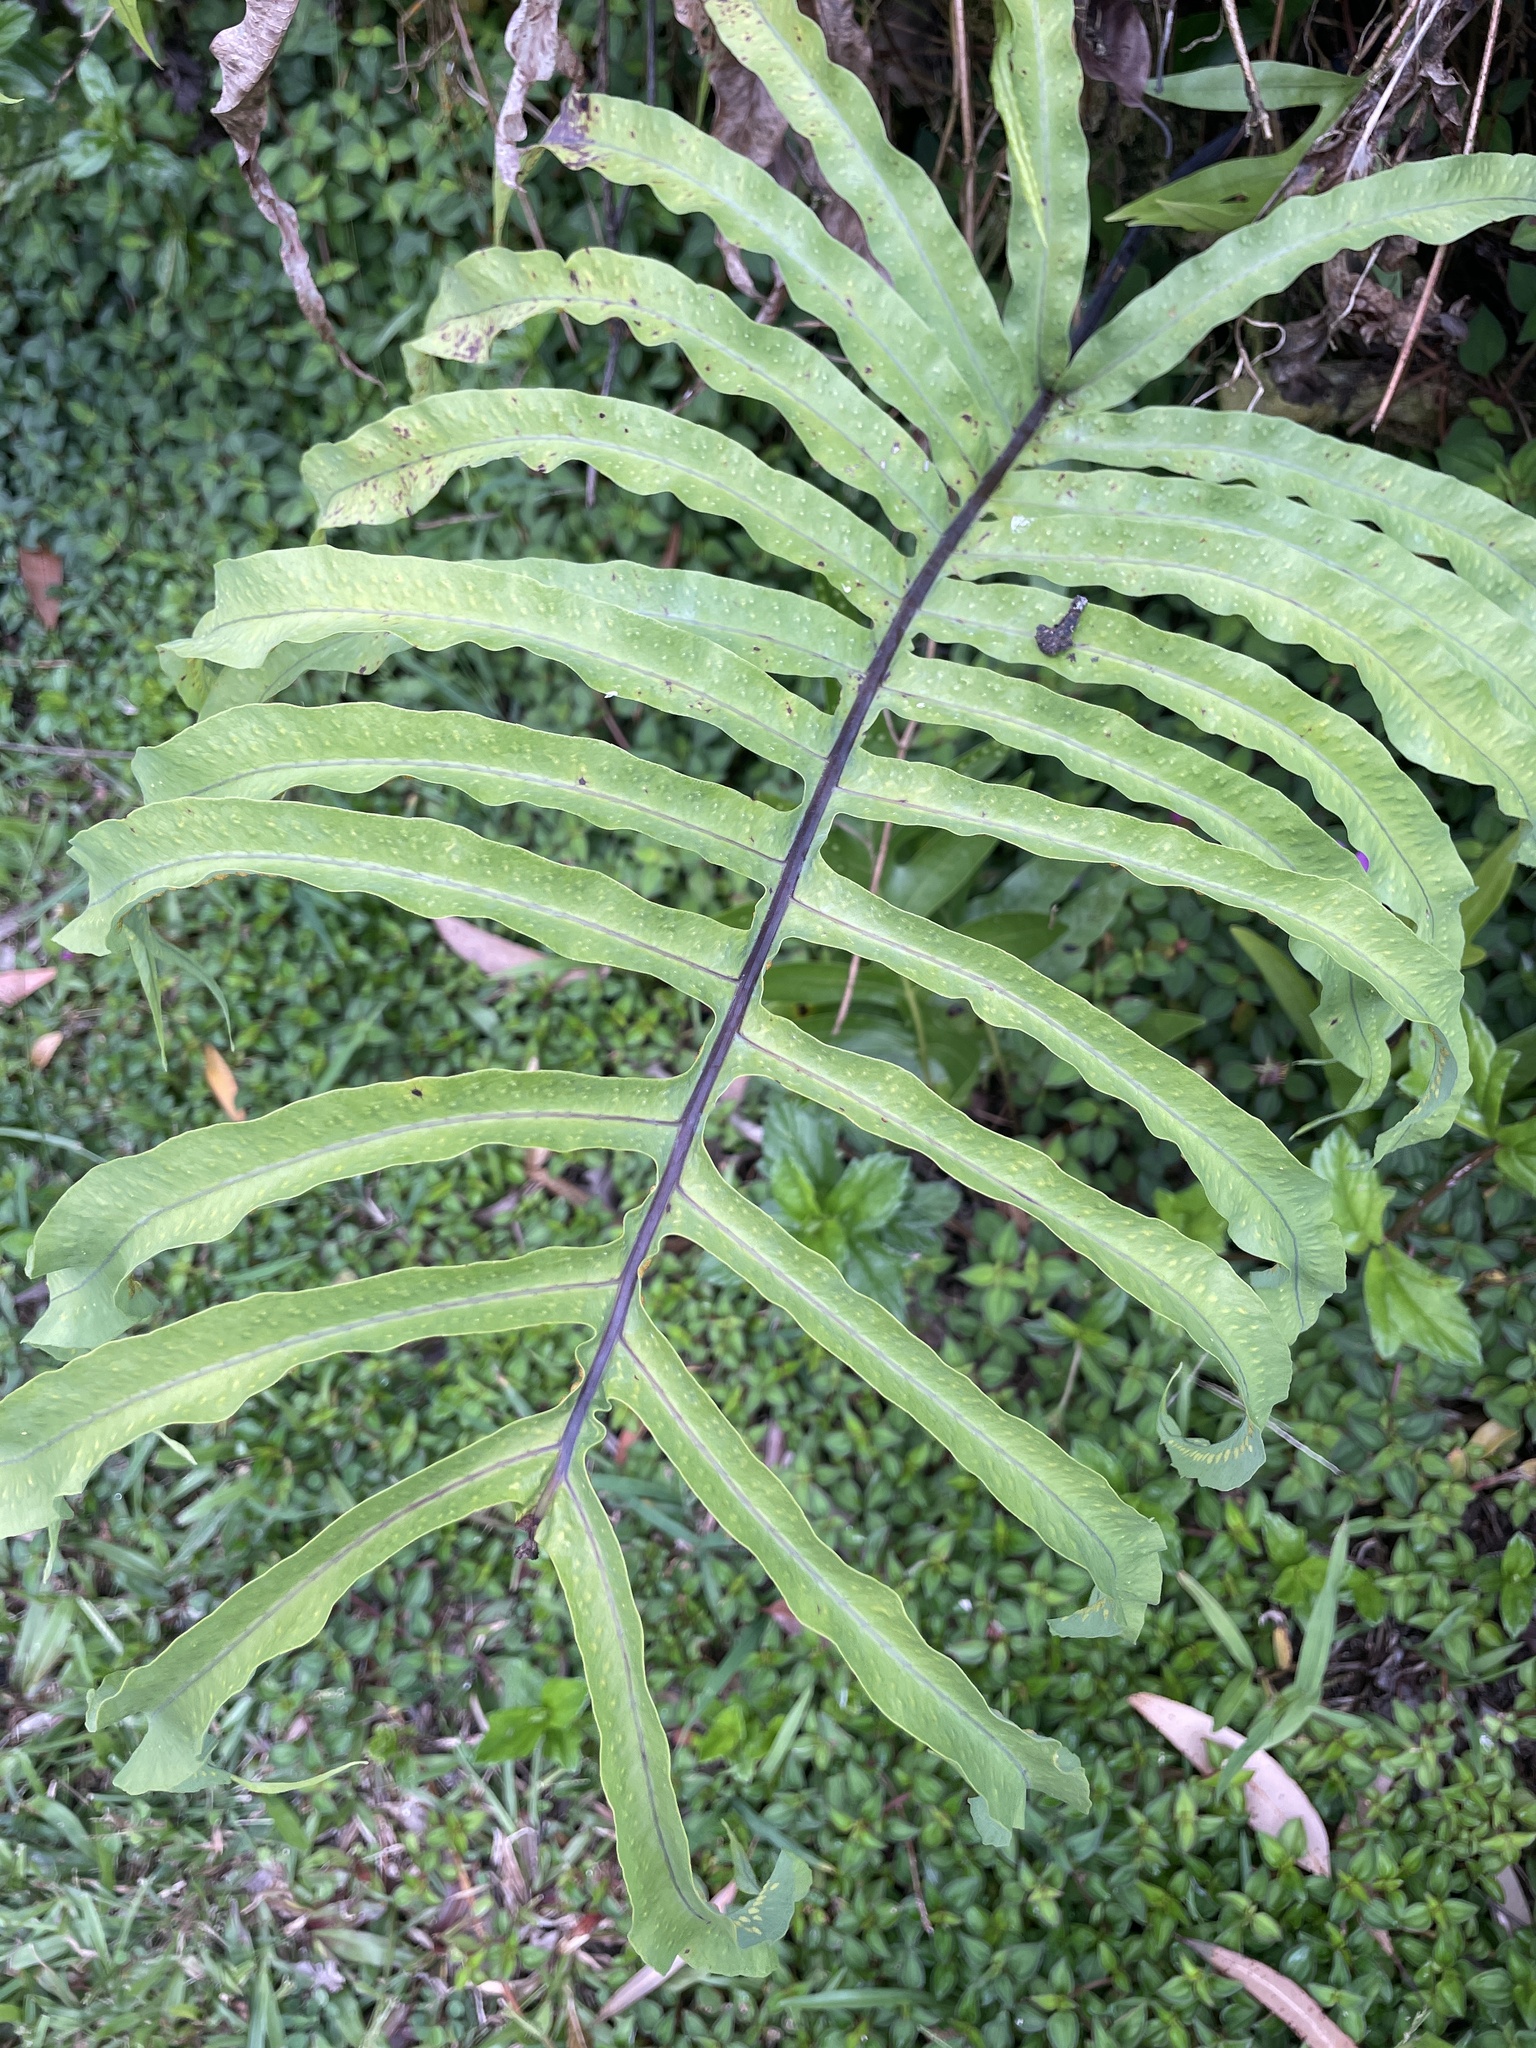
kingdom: Plantae
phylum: Tracheophyta
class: Polypodiopsida
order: Polypodiales
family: Polypodiaceae
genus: Phlebodium
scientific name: Phlebodium aureum
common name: Gold-foot fern
